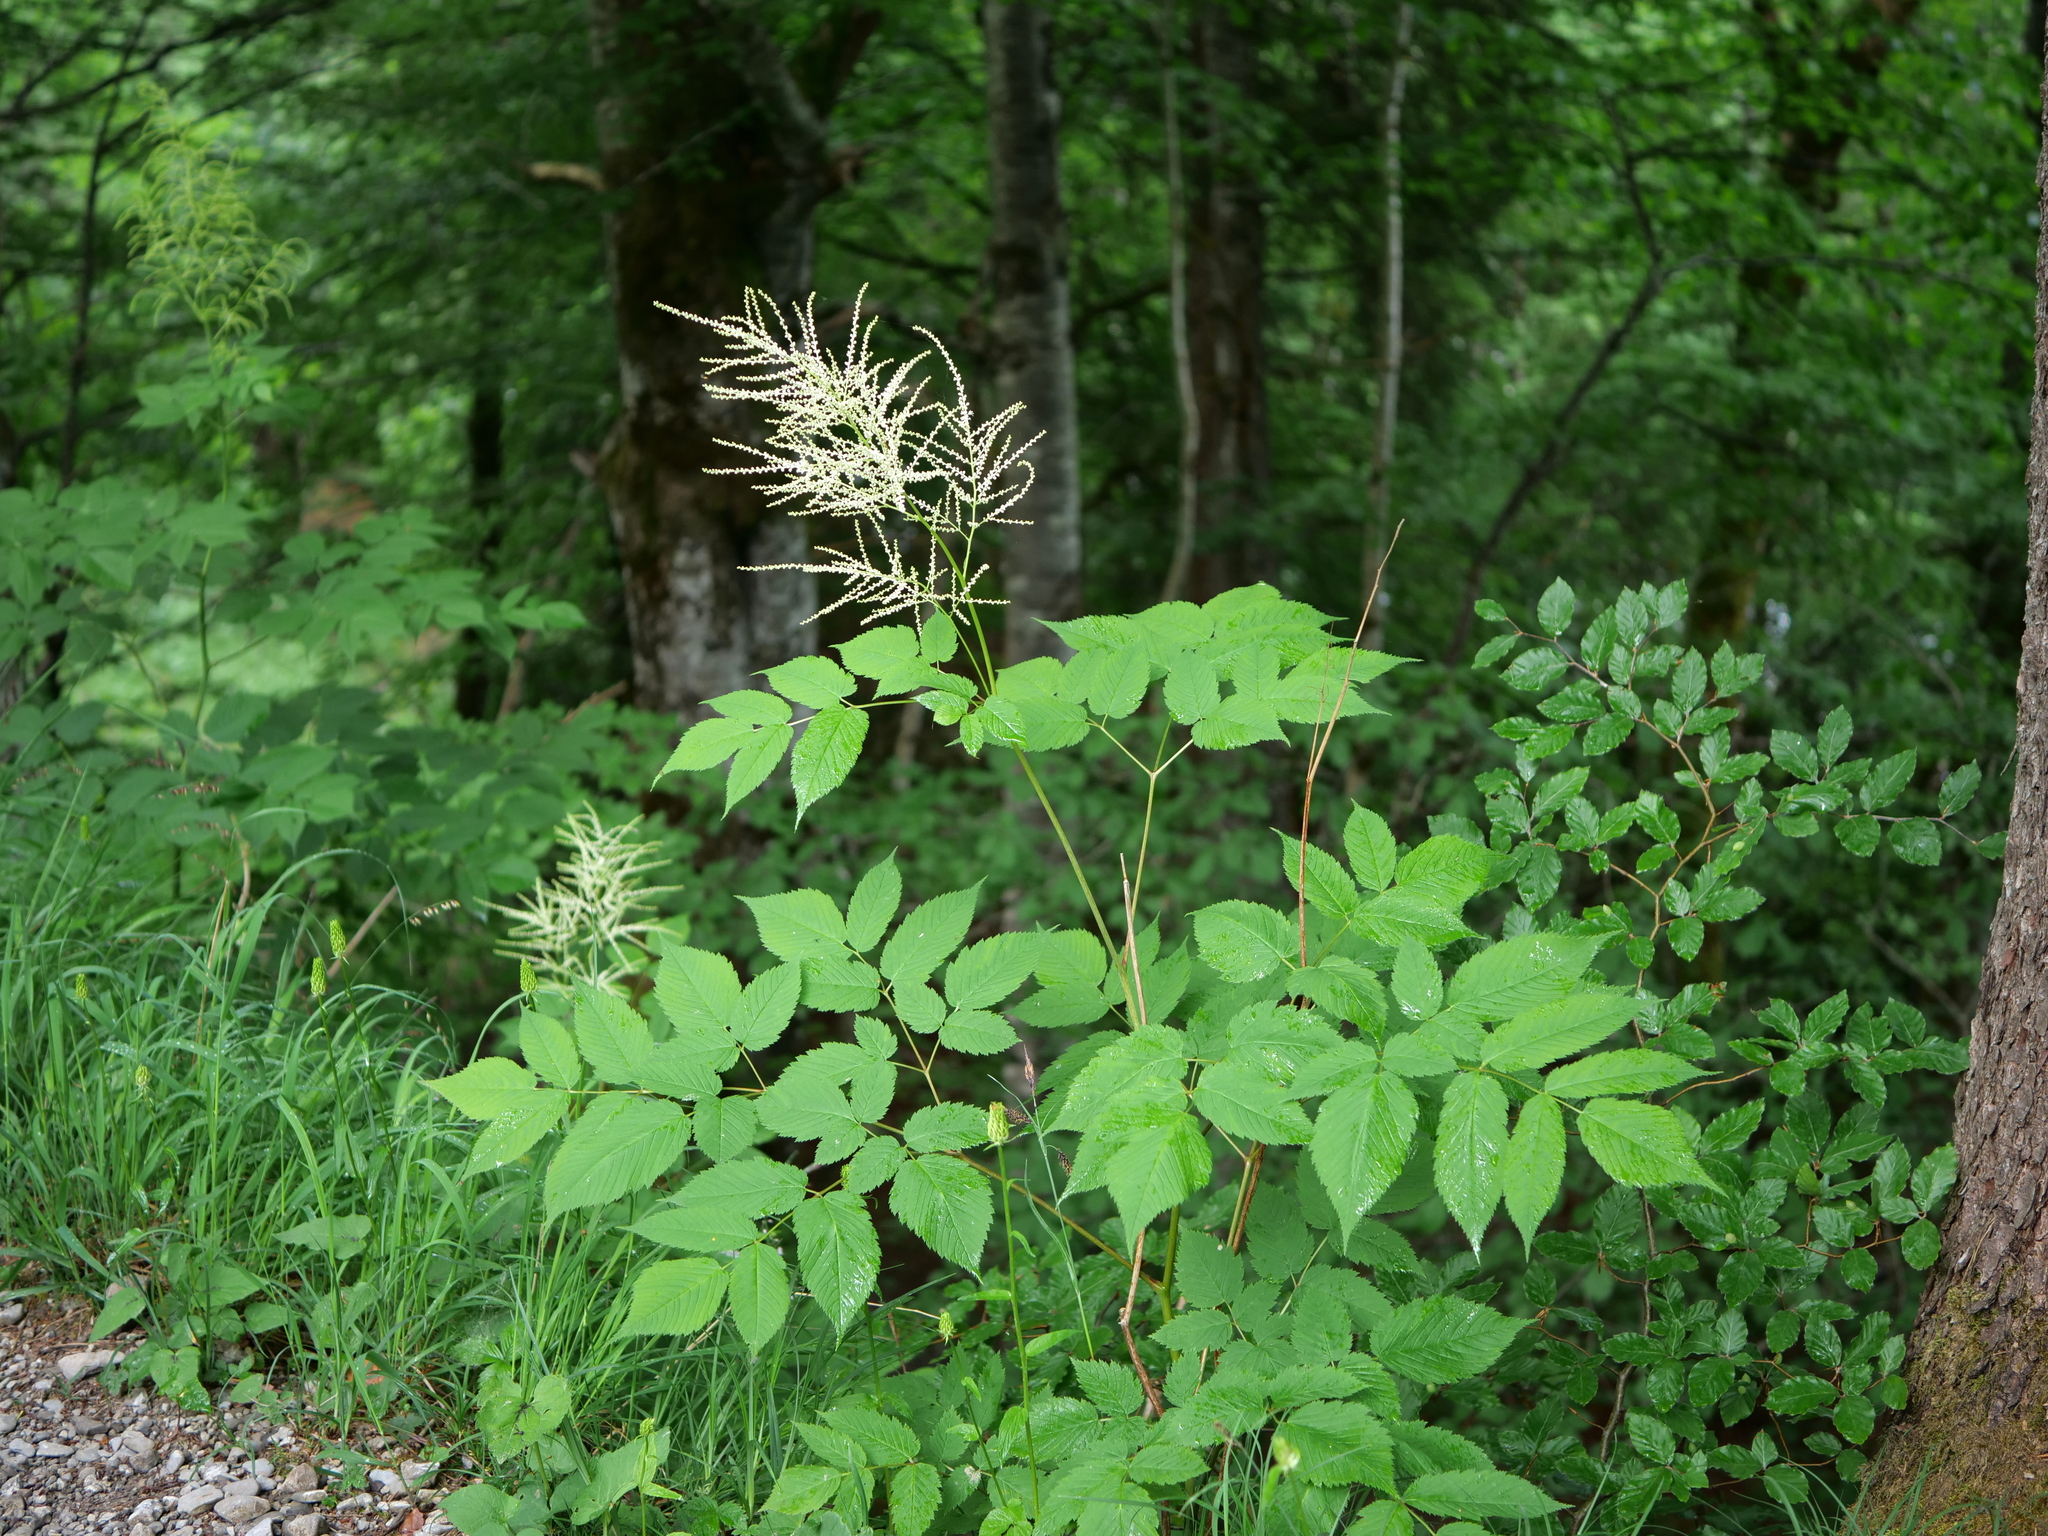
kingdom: Plantae
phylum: Tracheophyta
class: Magnoliopsida
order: Rosales
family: Rosaceae
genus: Aruncus
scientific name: Aruncus dioicus
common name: Buck's-beard
